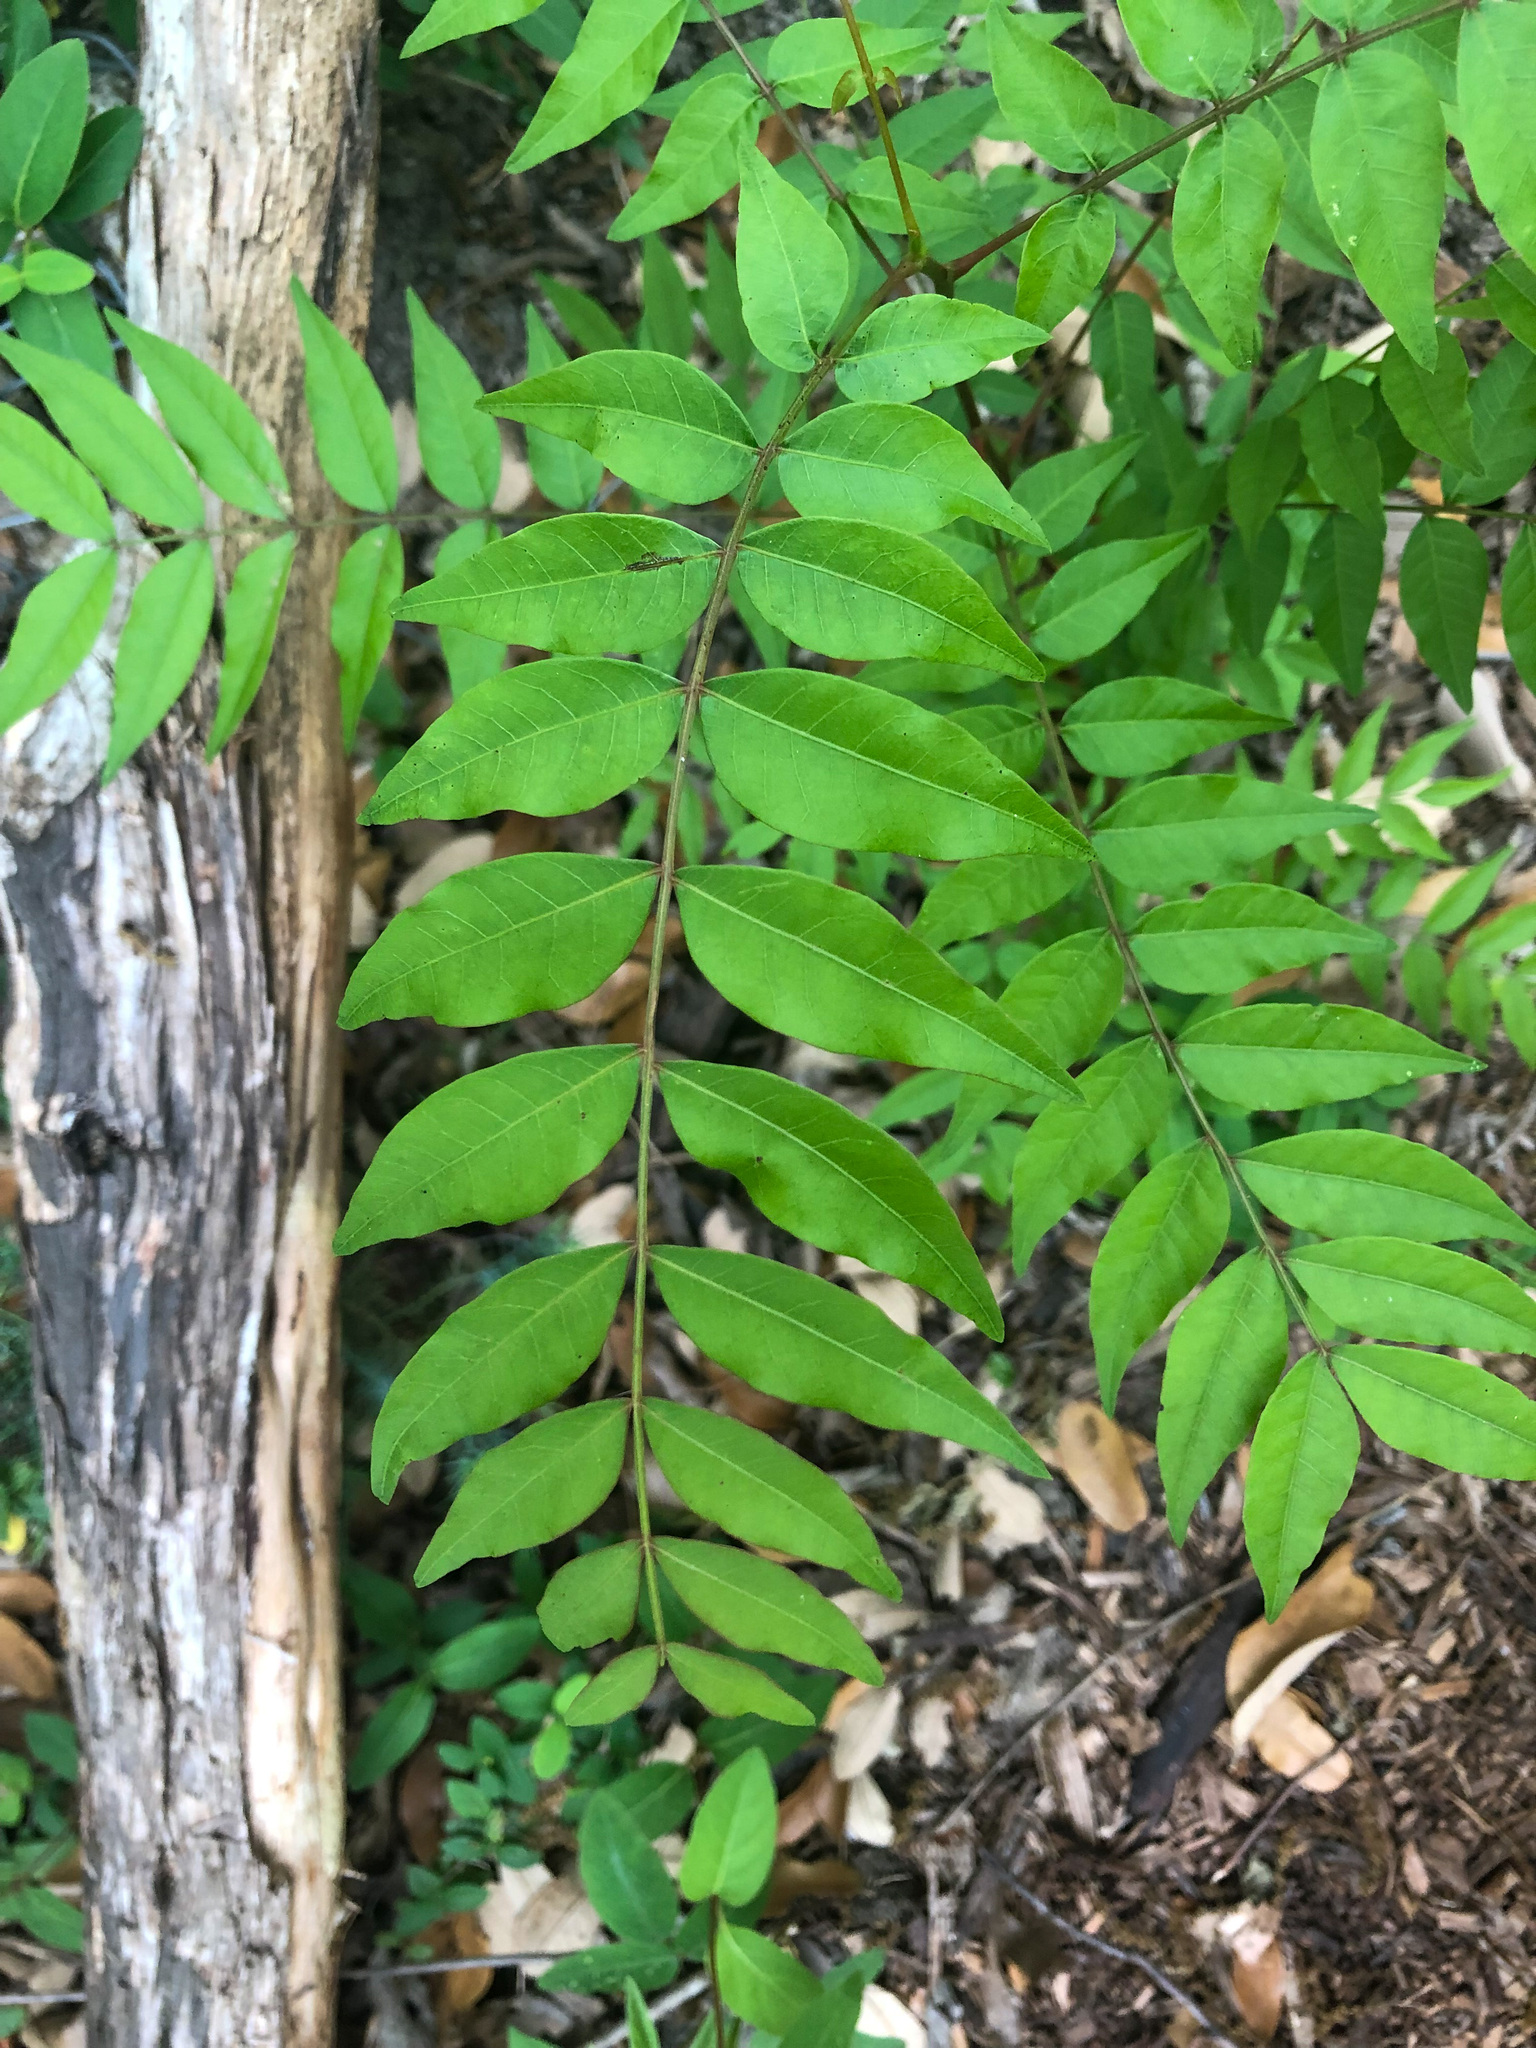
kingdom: Plantae
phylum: Tracheophyta
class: Magnoliopsida
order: Sapindales
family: Anacardiaceae
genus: Pistacia
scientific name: Pistacia chinensis
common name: Chinese pistache
